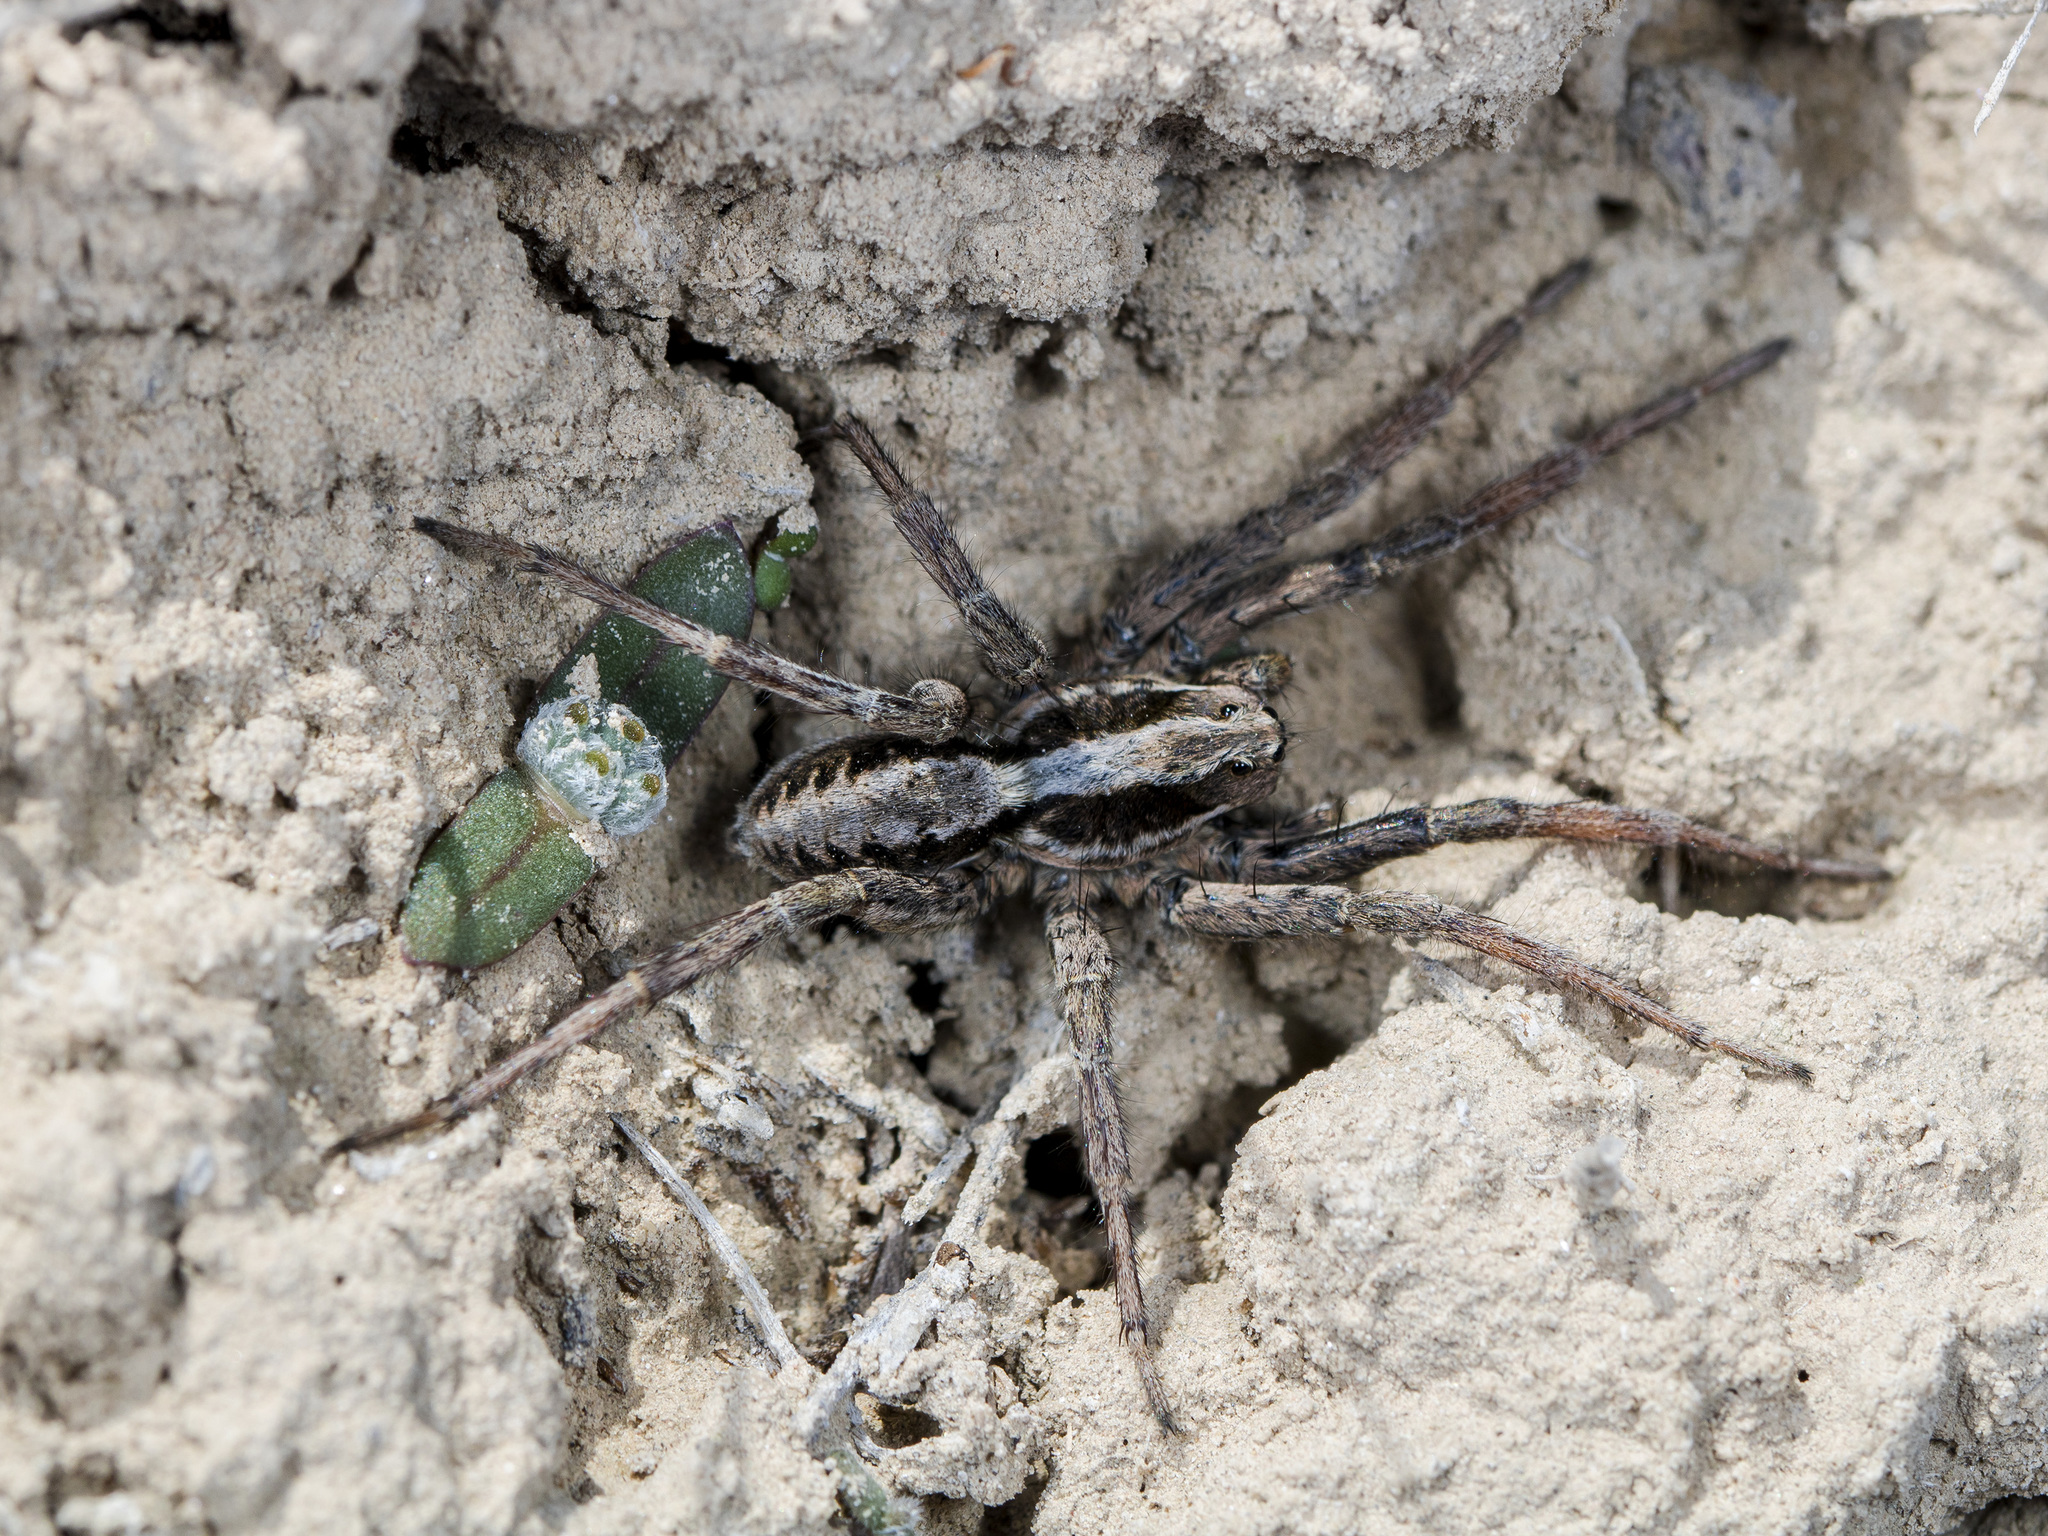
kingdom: Animalia
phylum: Arthropoda
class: Arachnida
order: Araneae
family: Lycosidae
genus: Alopecosa
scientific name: Alopecosa fedotovi
